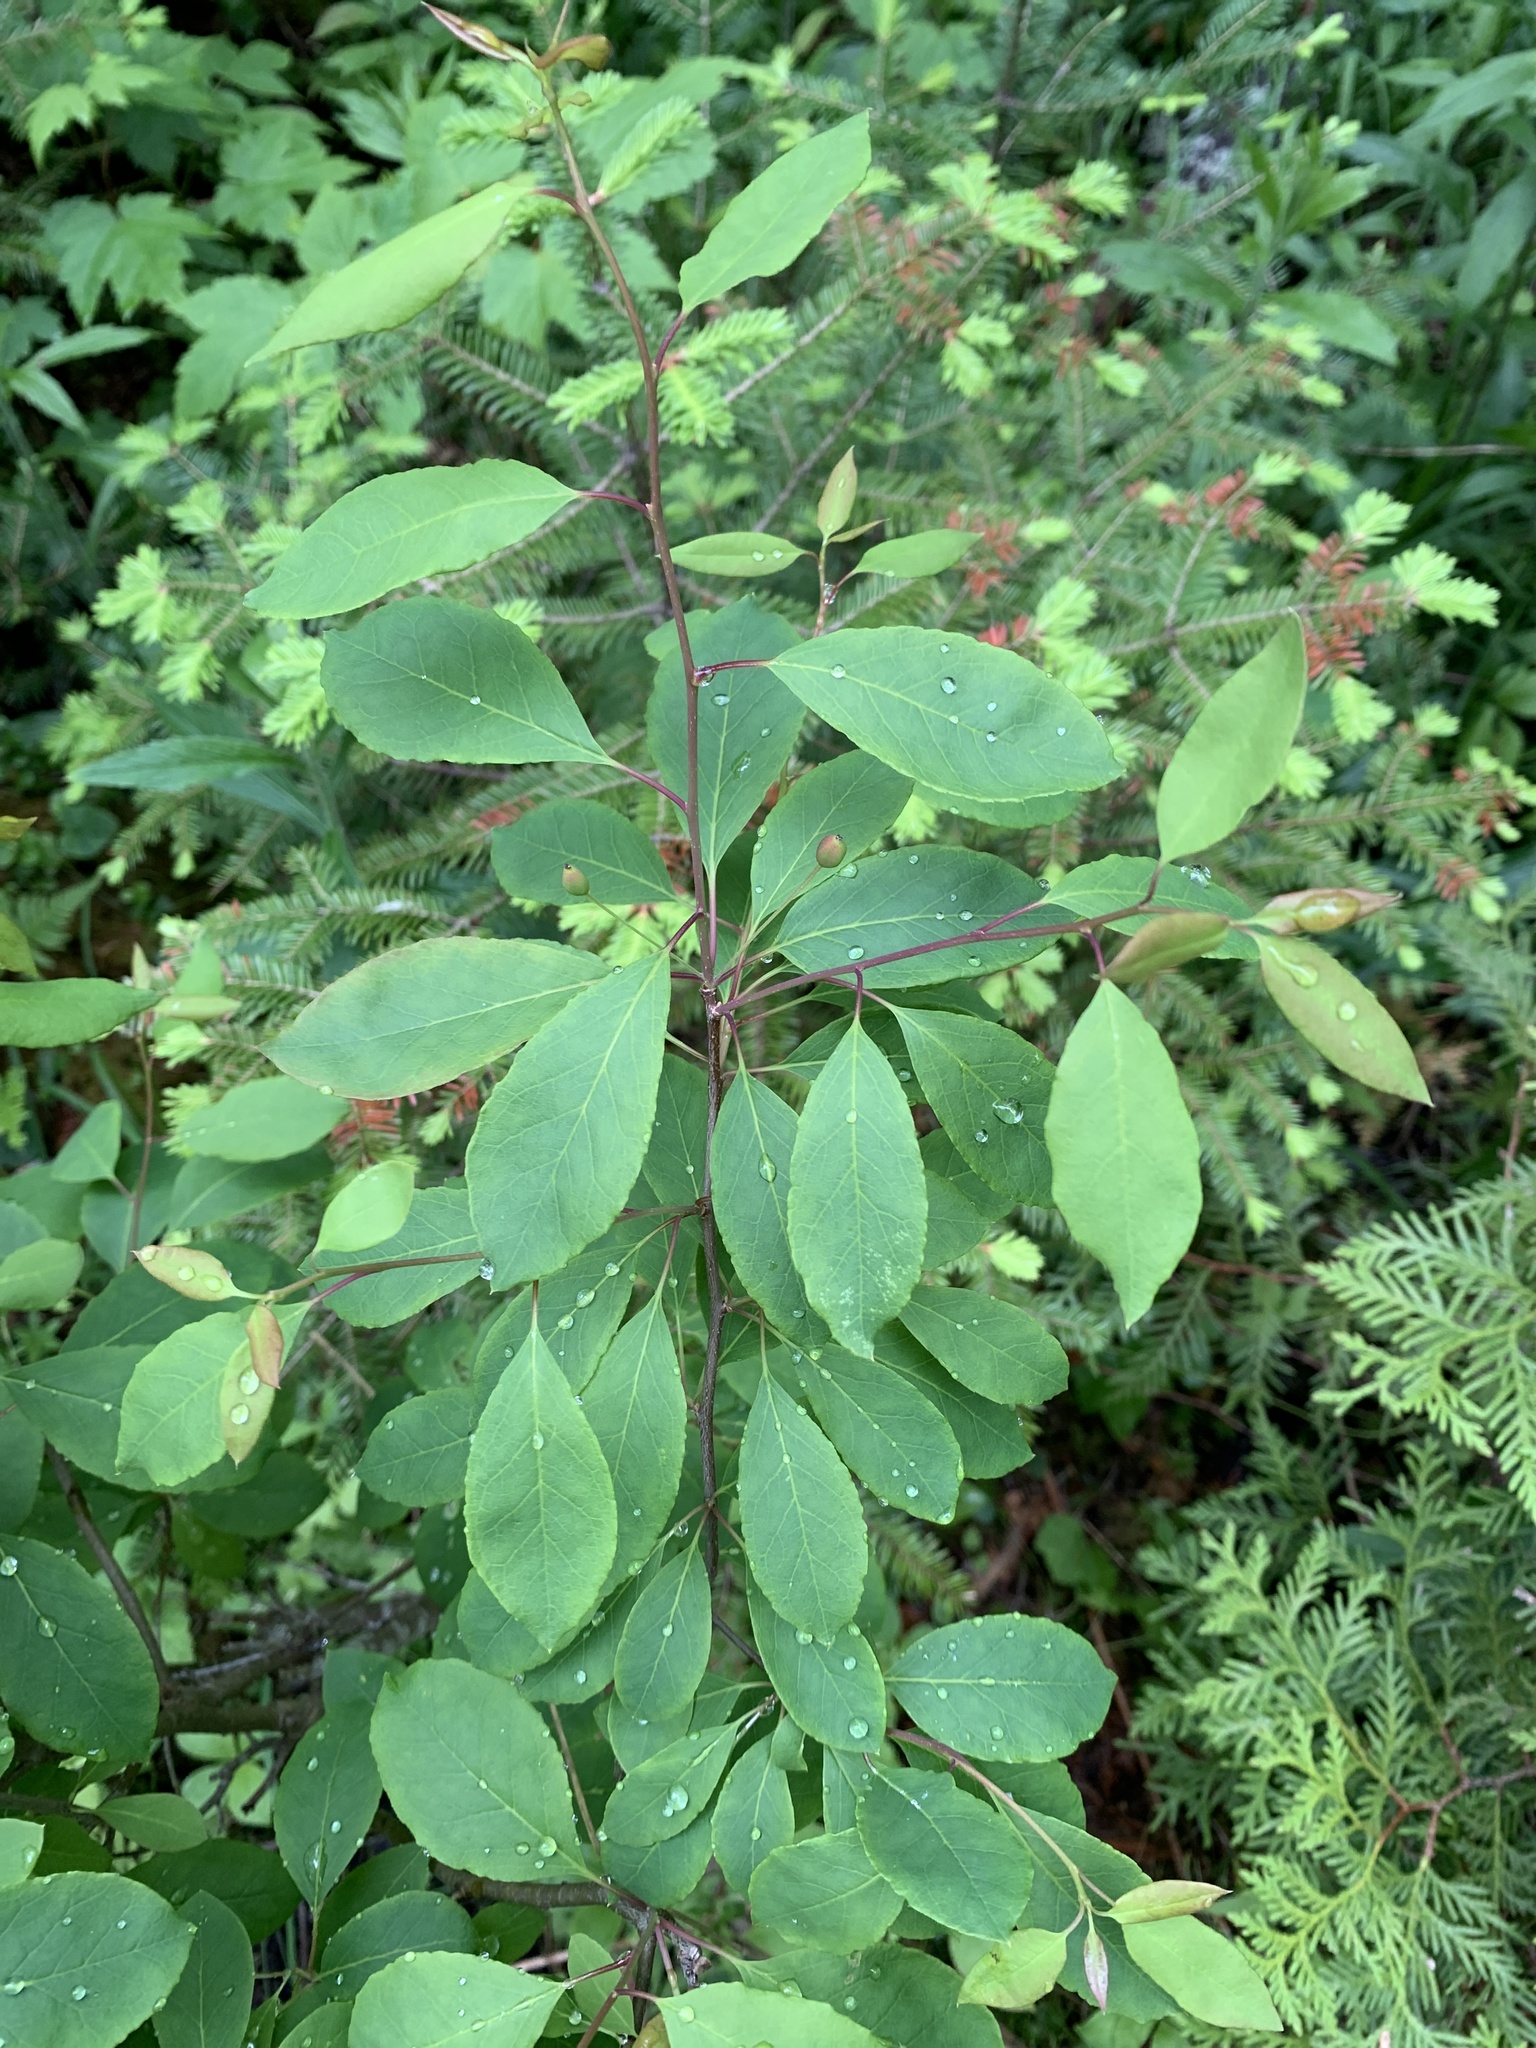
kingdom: Plantae
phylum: Tracheophyta
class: Magnoliopsida
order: Aquifoliales
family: Aquifoliaceae
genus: Ilex
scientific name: Ilex mucronata
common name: Catberry
